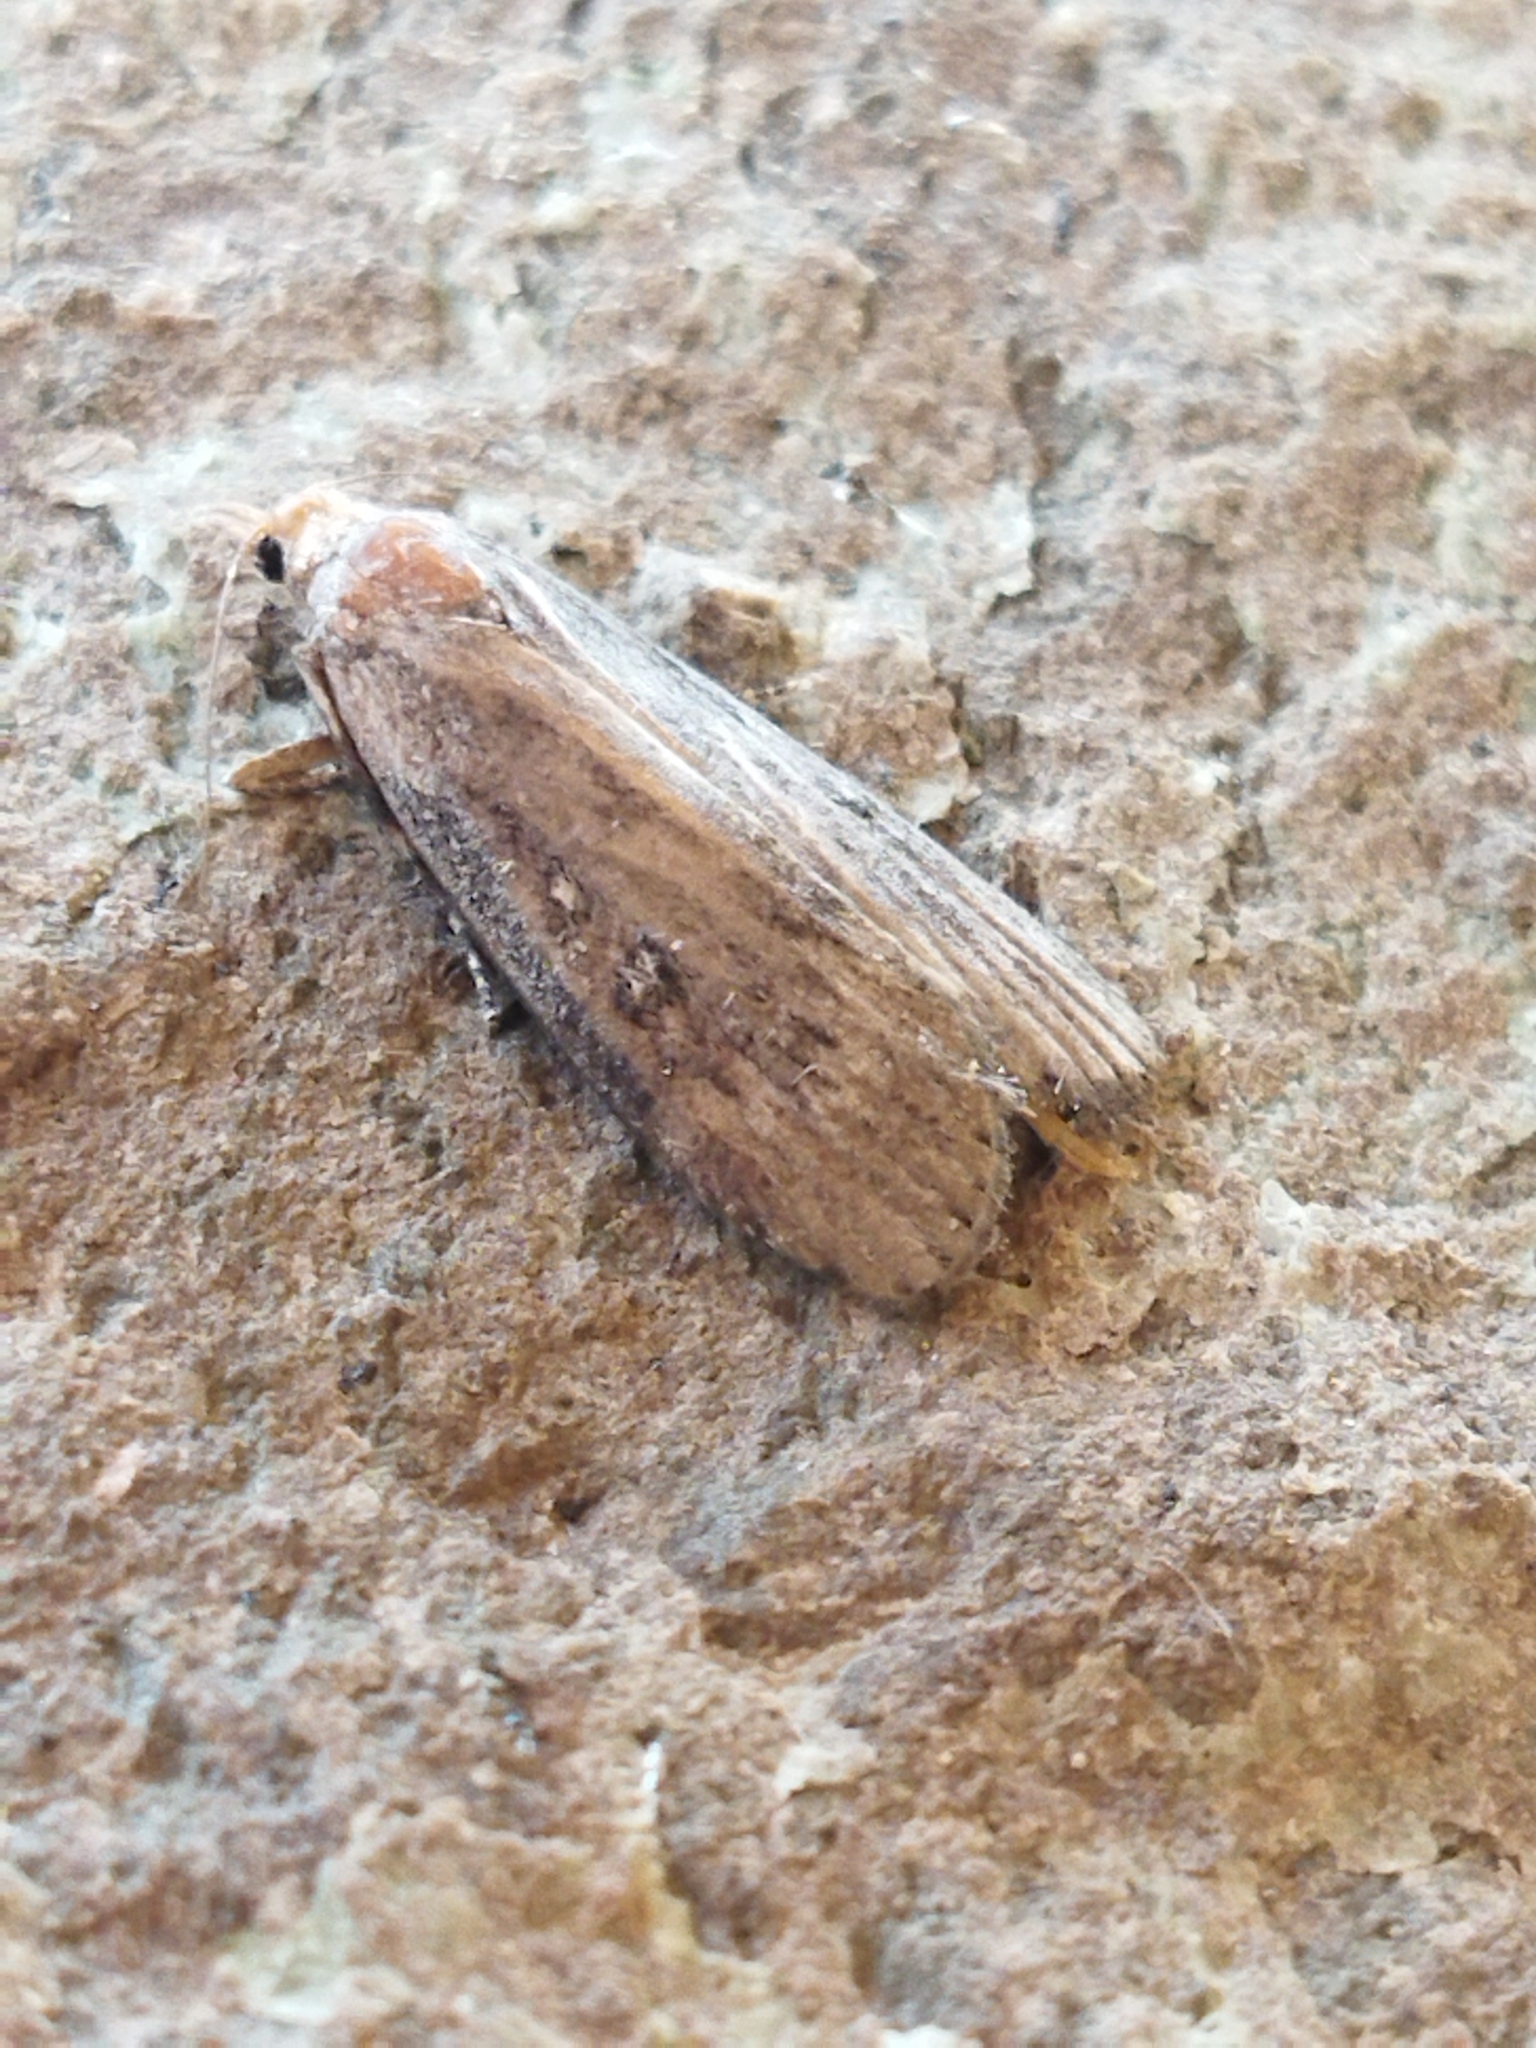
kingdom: Animalia
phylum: Arthropoda
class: Insecta
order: Lepidoptera
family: Pyralidae
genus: Lamoria
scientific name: Lamoria anella
